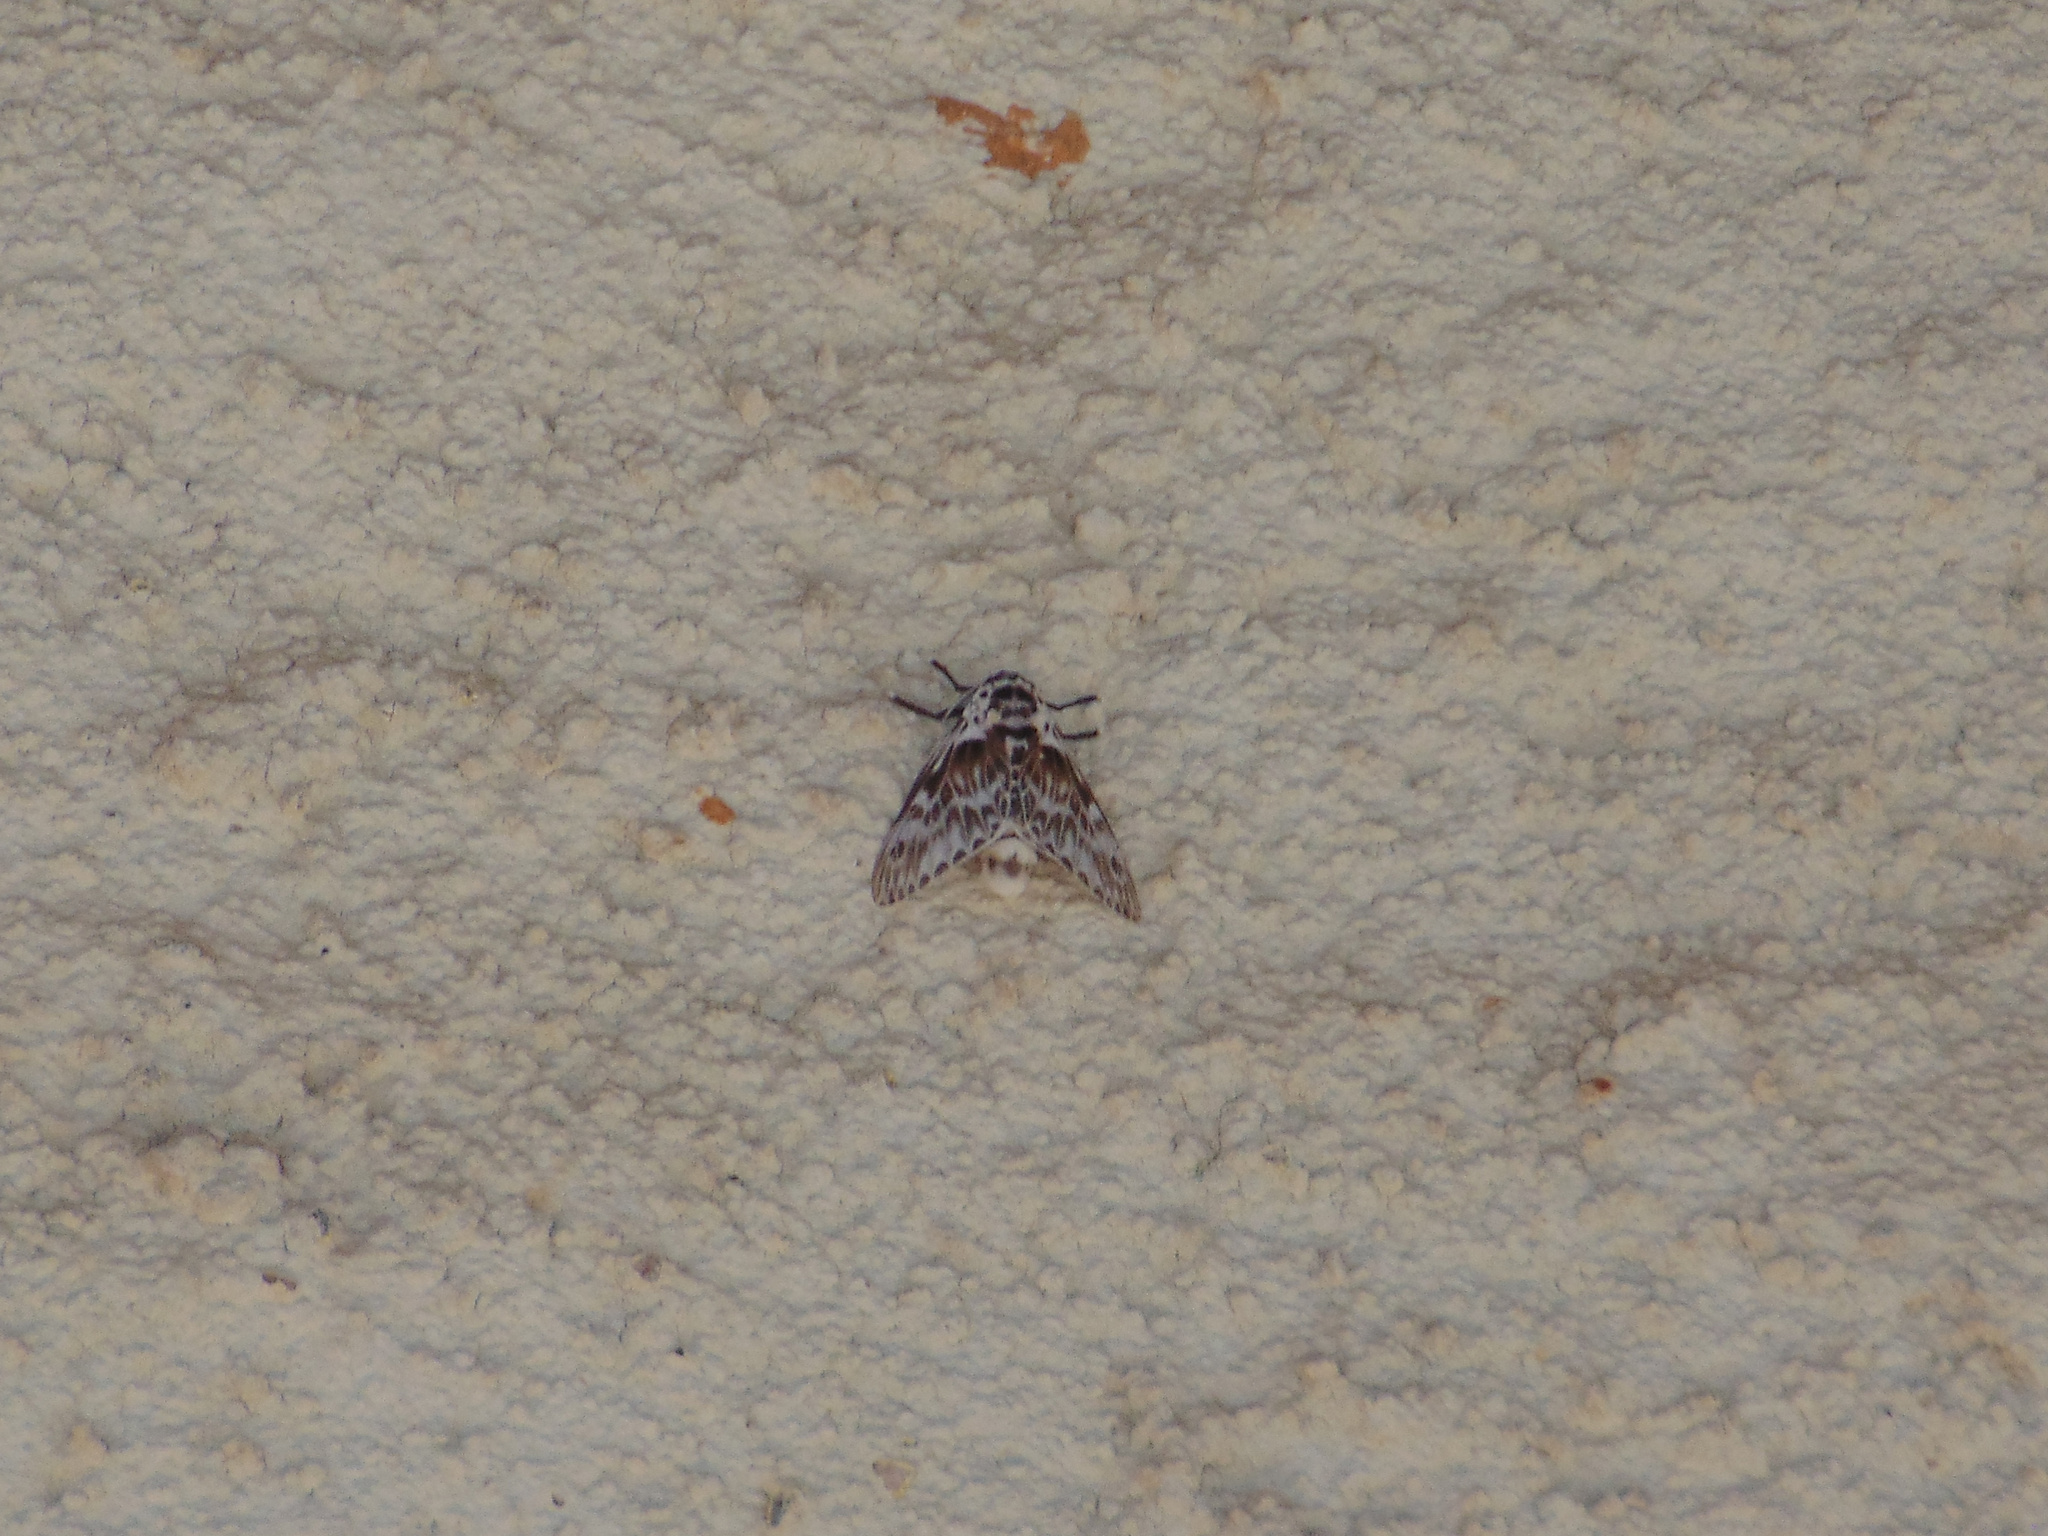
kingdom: Animalia
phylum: Arthropoda
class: Insecta
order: Lepidoptera
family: Megalopygidae
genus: Podalia
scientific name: Podalia orsilochus
